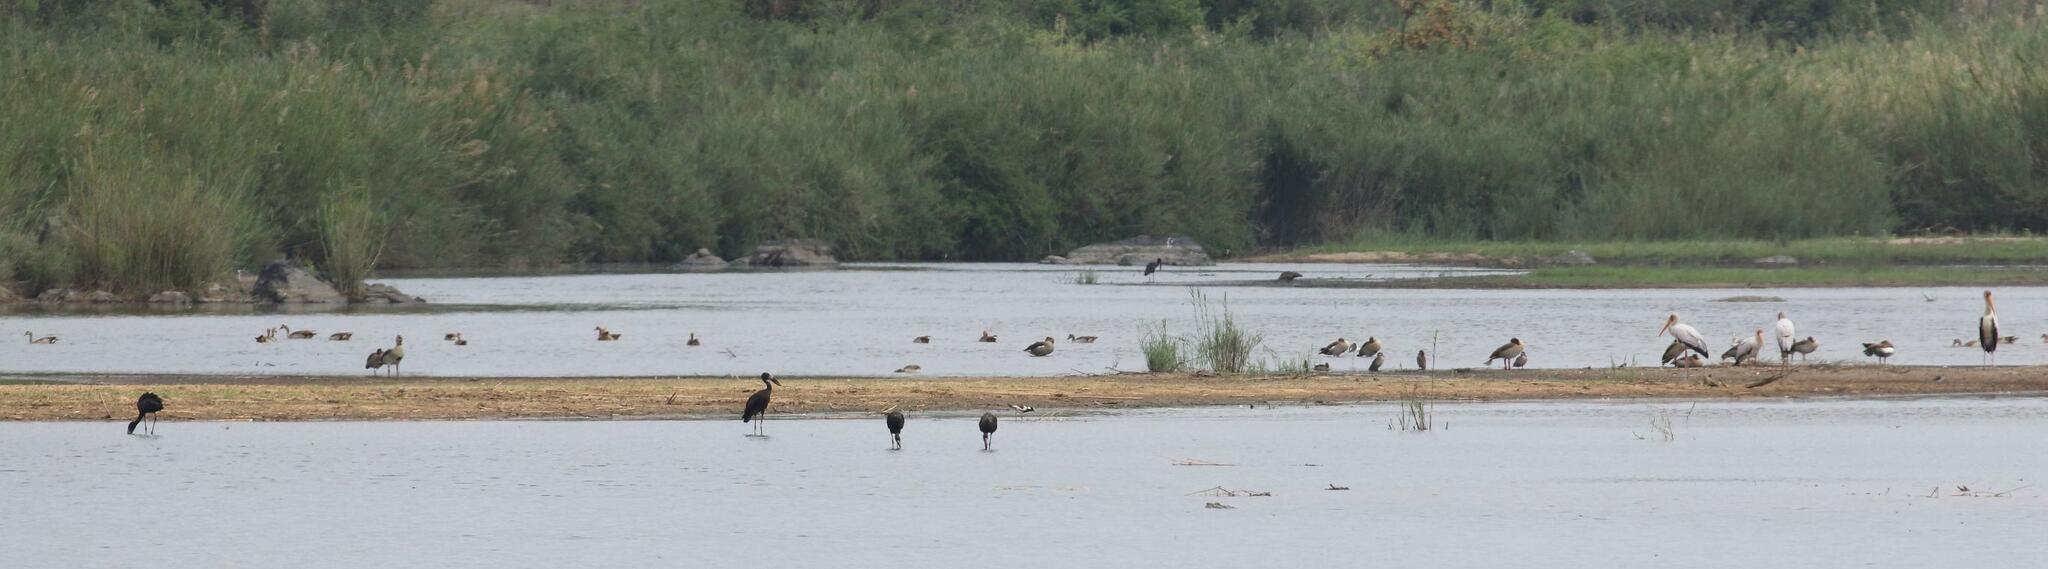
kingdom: Animalia
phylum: Chordata
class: Aves
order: Ciconiiformes
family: Ciconiidae
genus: Anastomus
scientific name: Anastomus lamelligerus
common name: African openbill
